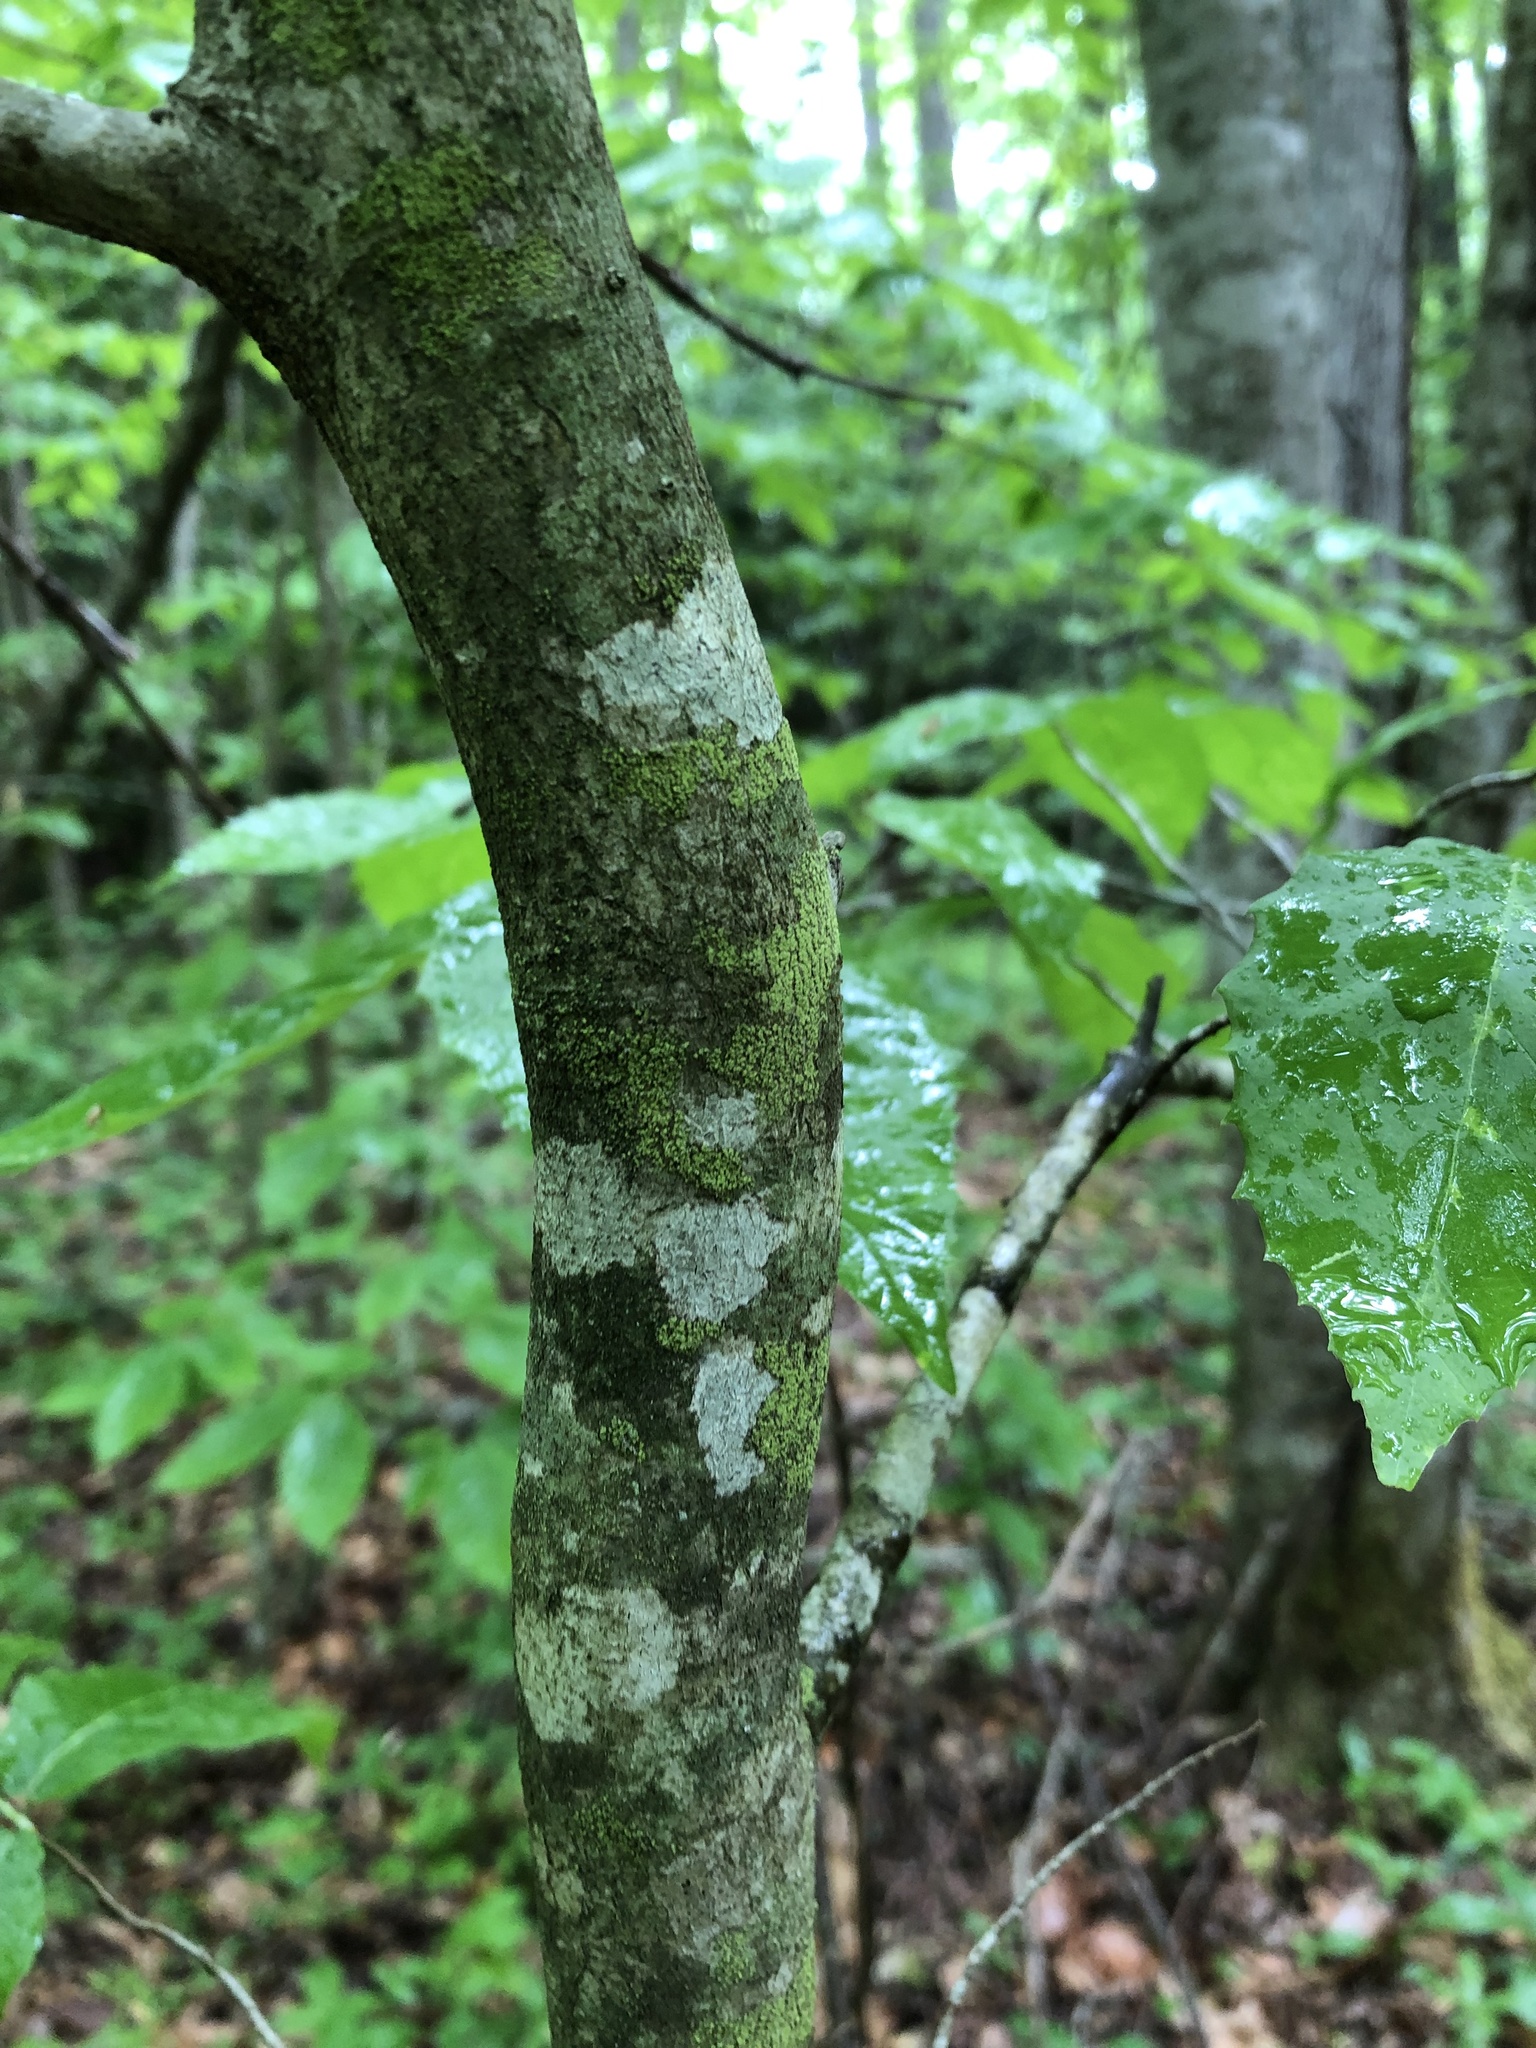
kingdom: Plantae
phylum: Tracheophyta
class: Magnoliopsida
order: Fagales
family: Fagaceae
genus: Fagus
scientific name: Fagus grandifolia
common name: American beech
